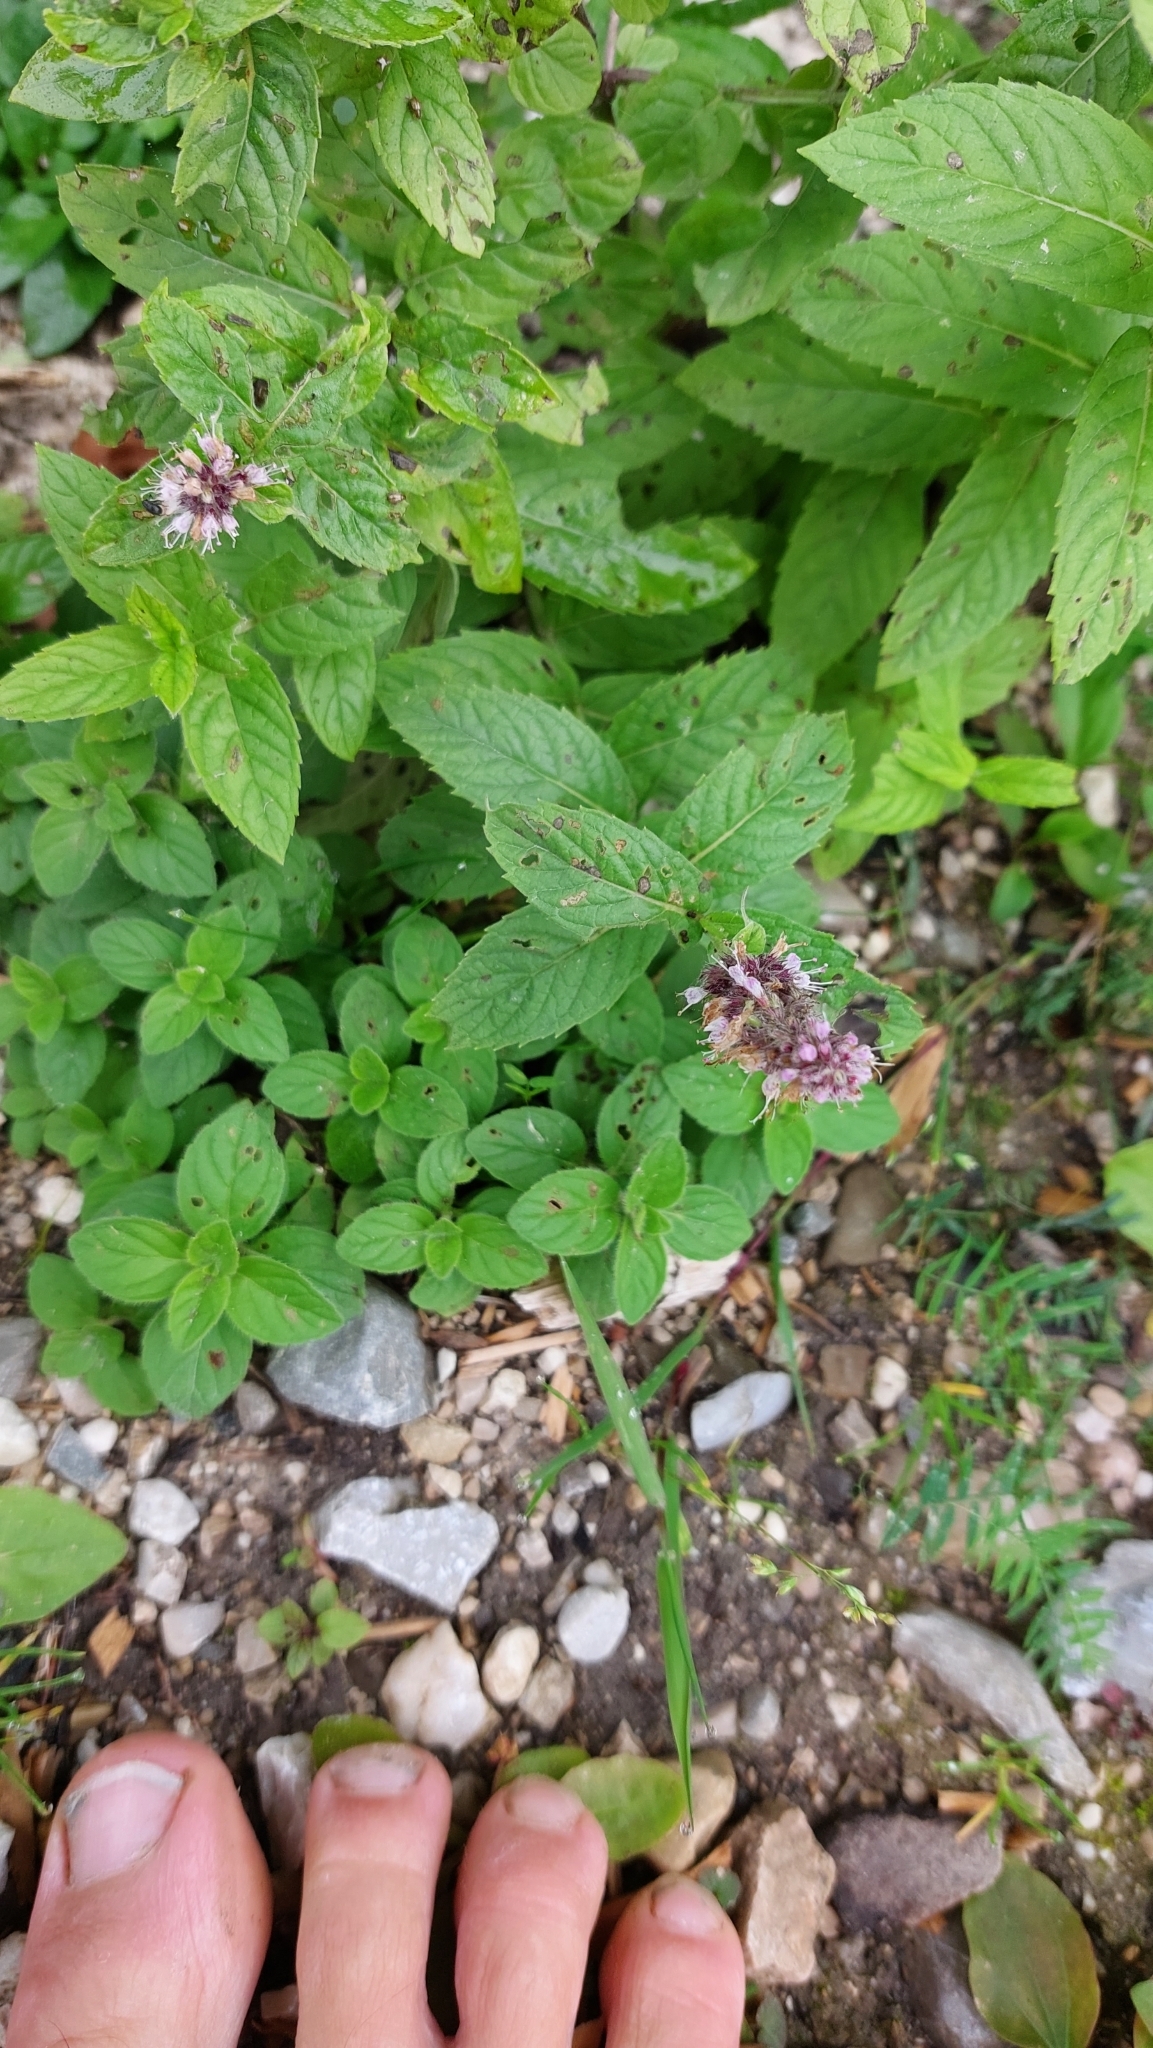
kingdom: Plantae
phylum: Tracheophyta
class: Magnoliopsida
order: Lamiales
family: Lamiaceae
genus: Mentha
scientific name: Mentha longifolia
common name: Horse mint
